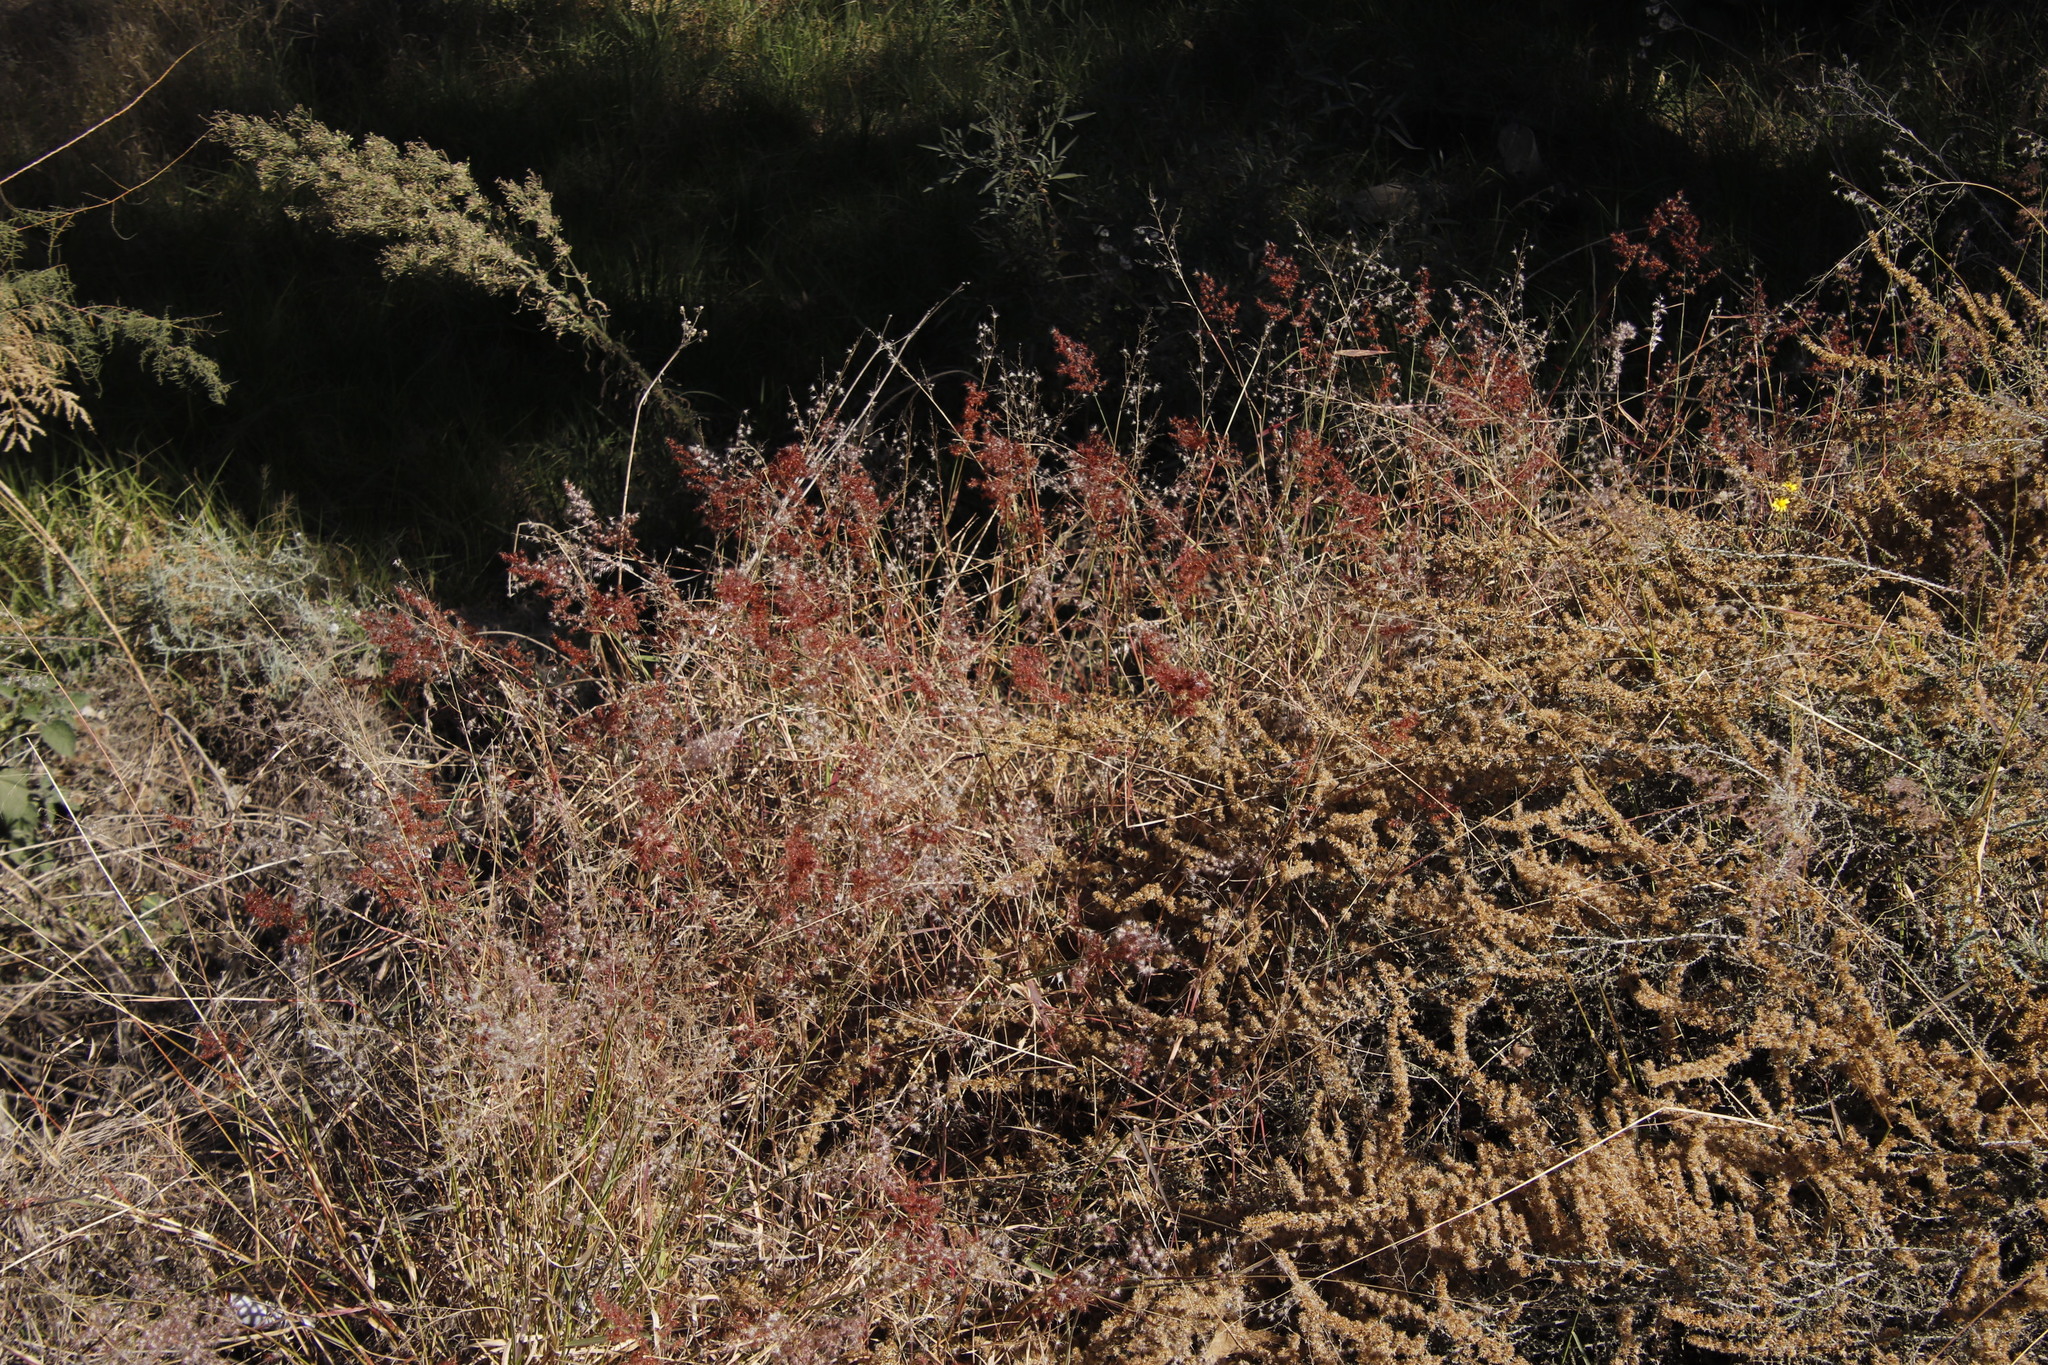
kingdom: Plantae
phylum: Tracheophyta
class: Liliopsida
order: Poales
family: Poaceae
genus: Melinis
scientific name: Melinis repens
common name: Rose natal grass
